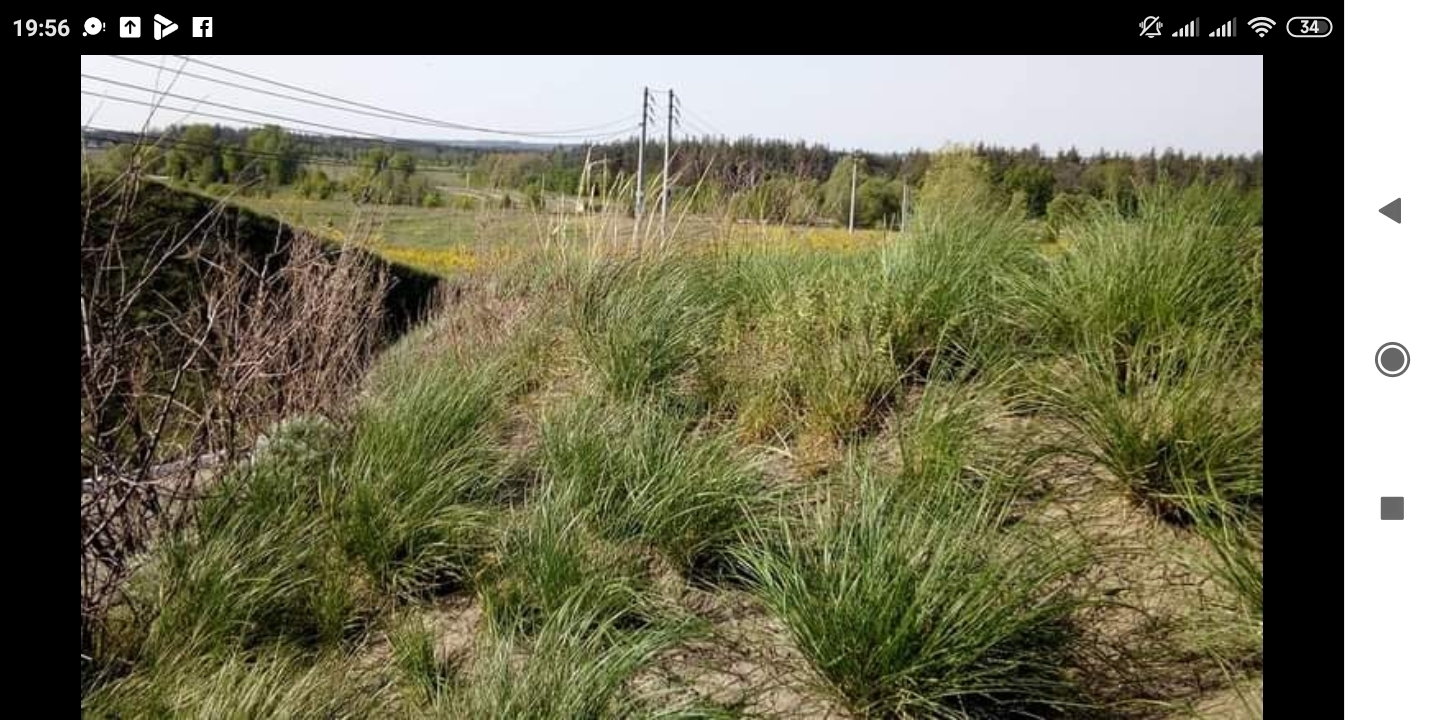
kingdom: Plantae
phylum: Tracheophyta
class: Liliopsida
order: Poales
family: Poaceae
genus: Stipa
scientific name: Stipa capillata
